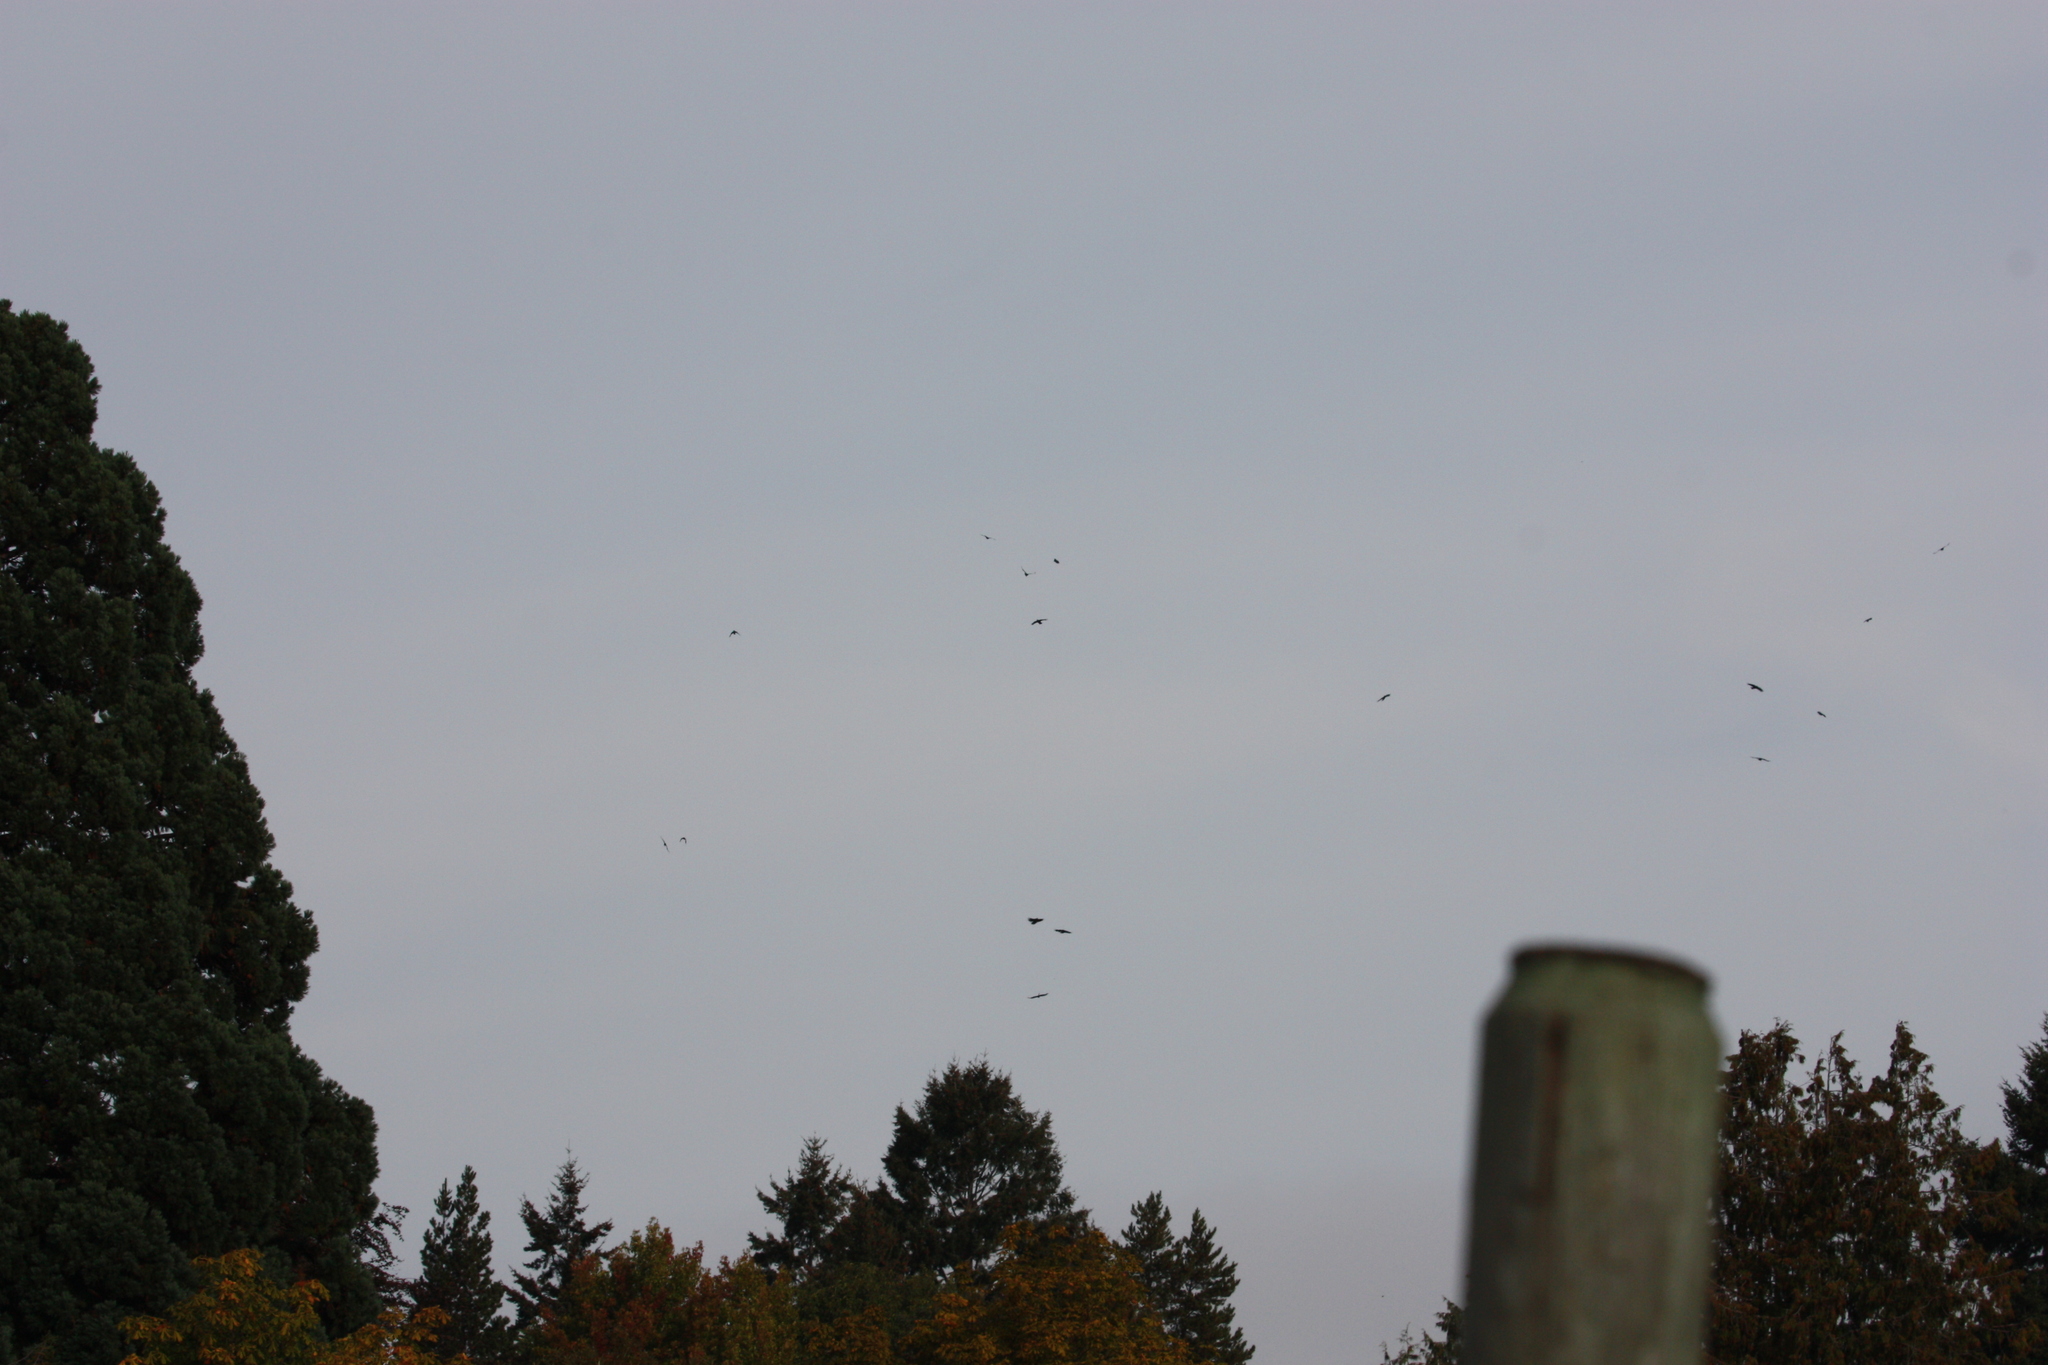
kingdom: Animalia
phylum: Chordata
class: Aves
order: Accipitriformes
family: Cathartidae
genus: Cathartes
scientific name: Cathartes aura
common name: Turkey vulture
